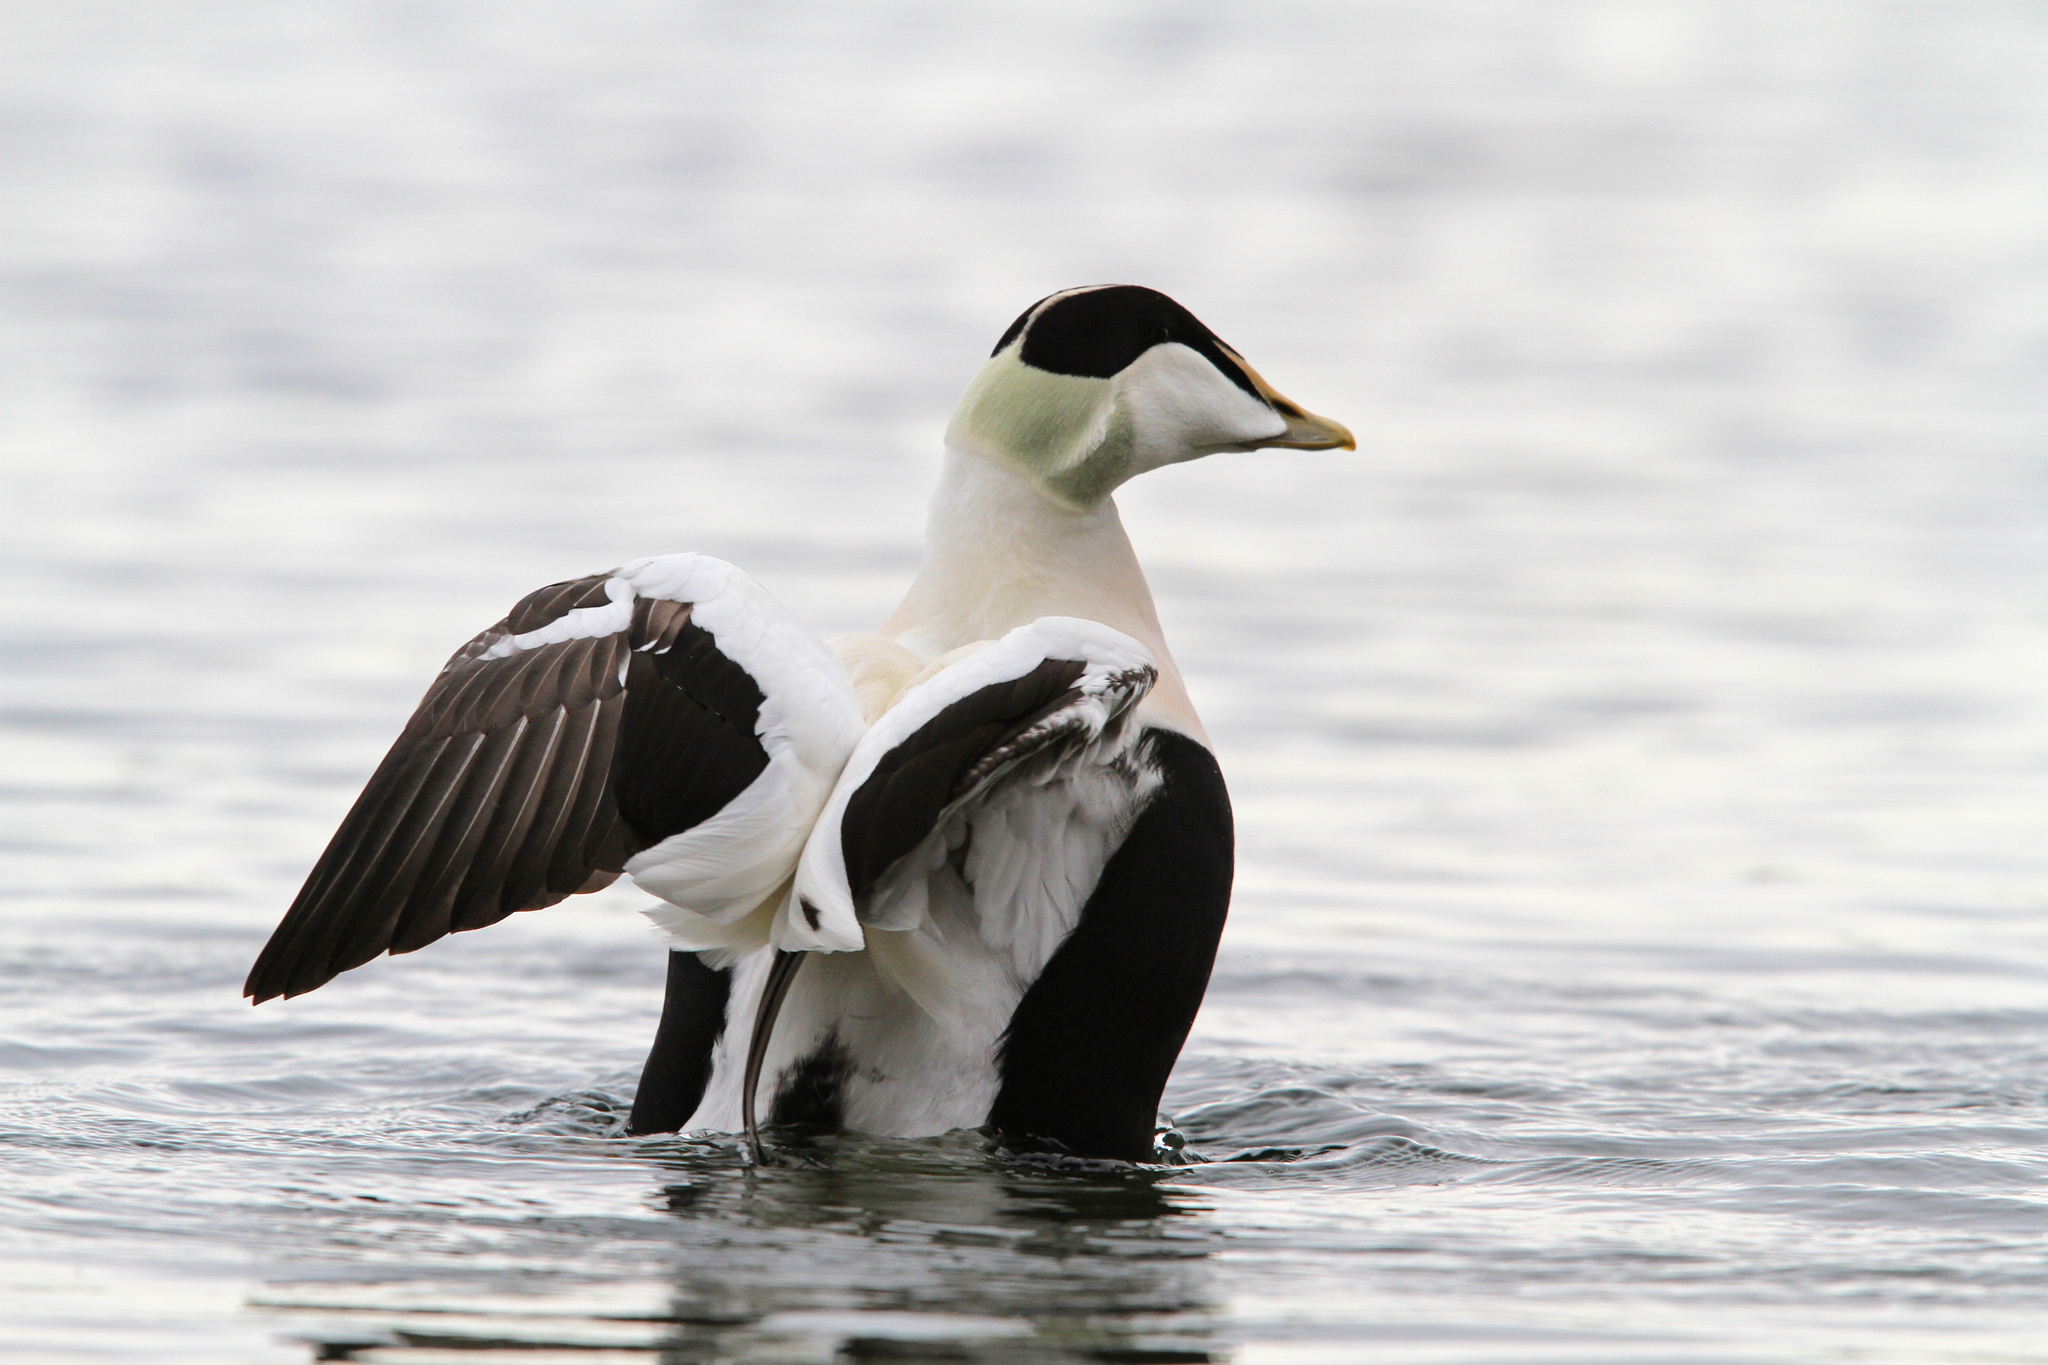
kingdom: Animalia
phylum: Chordata
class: Aves
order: Anseriformes
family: Anatidae
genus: Somateria
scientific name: Somateria mollissima
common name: Common eider
